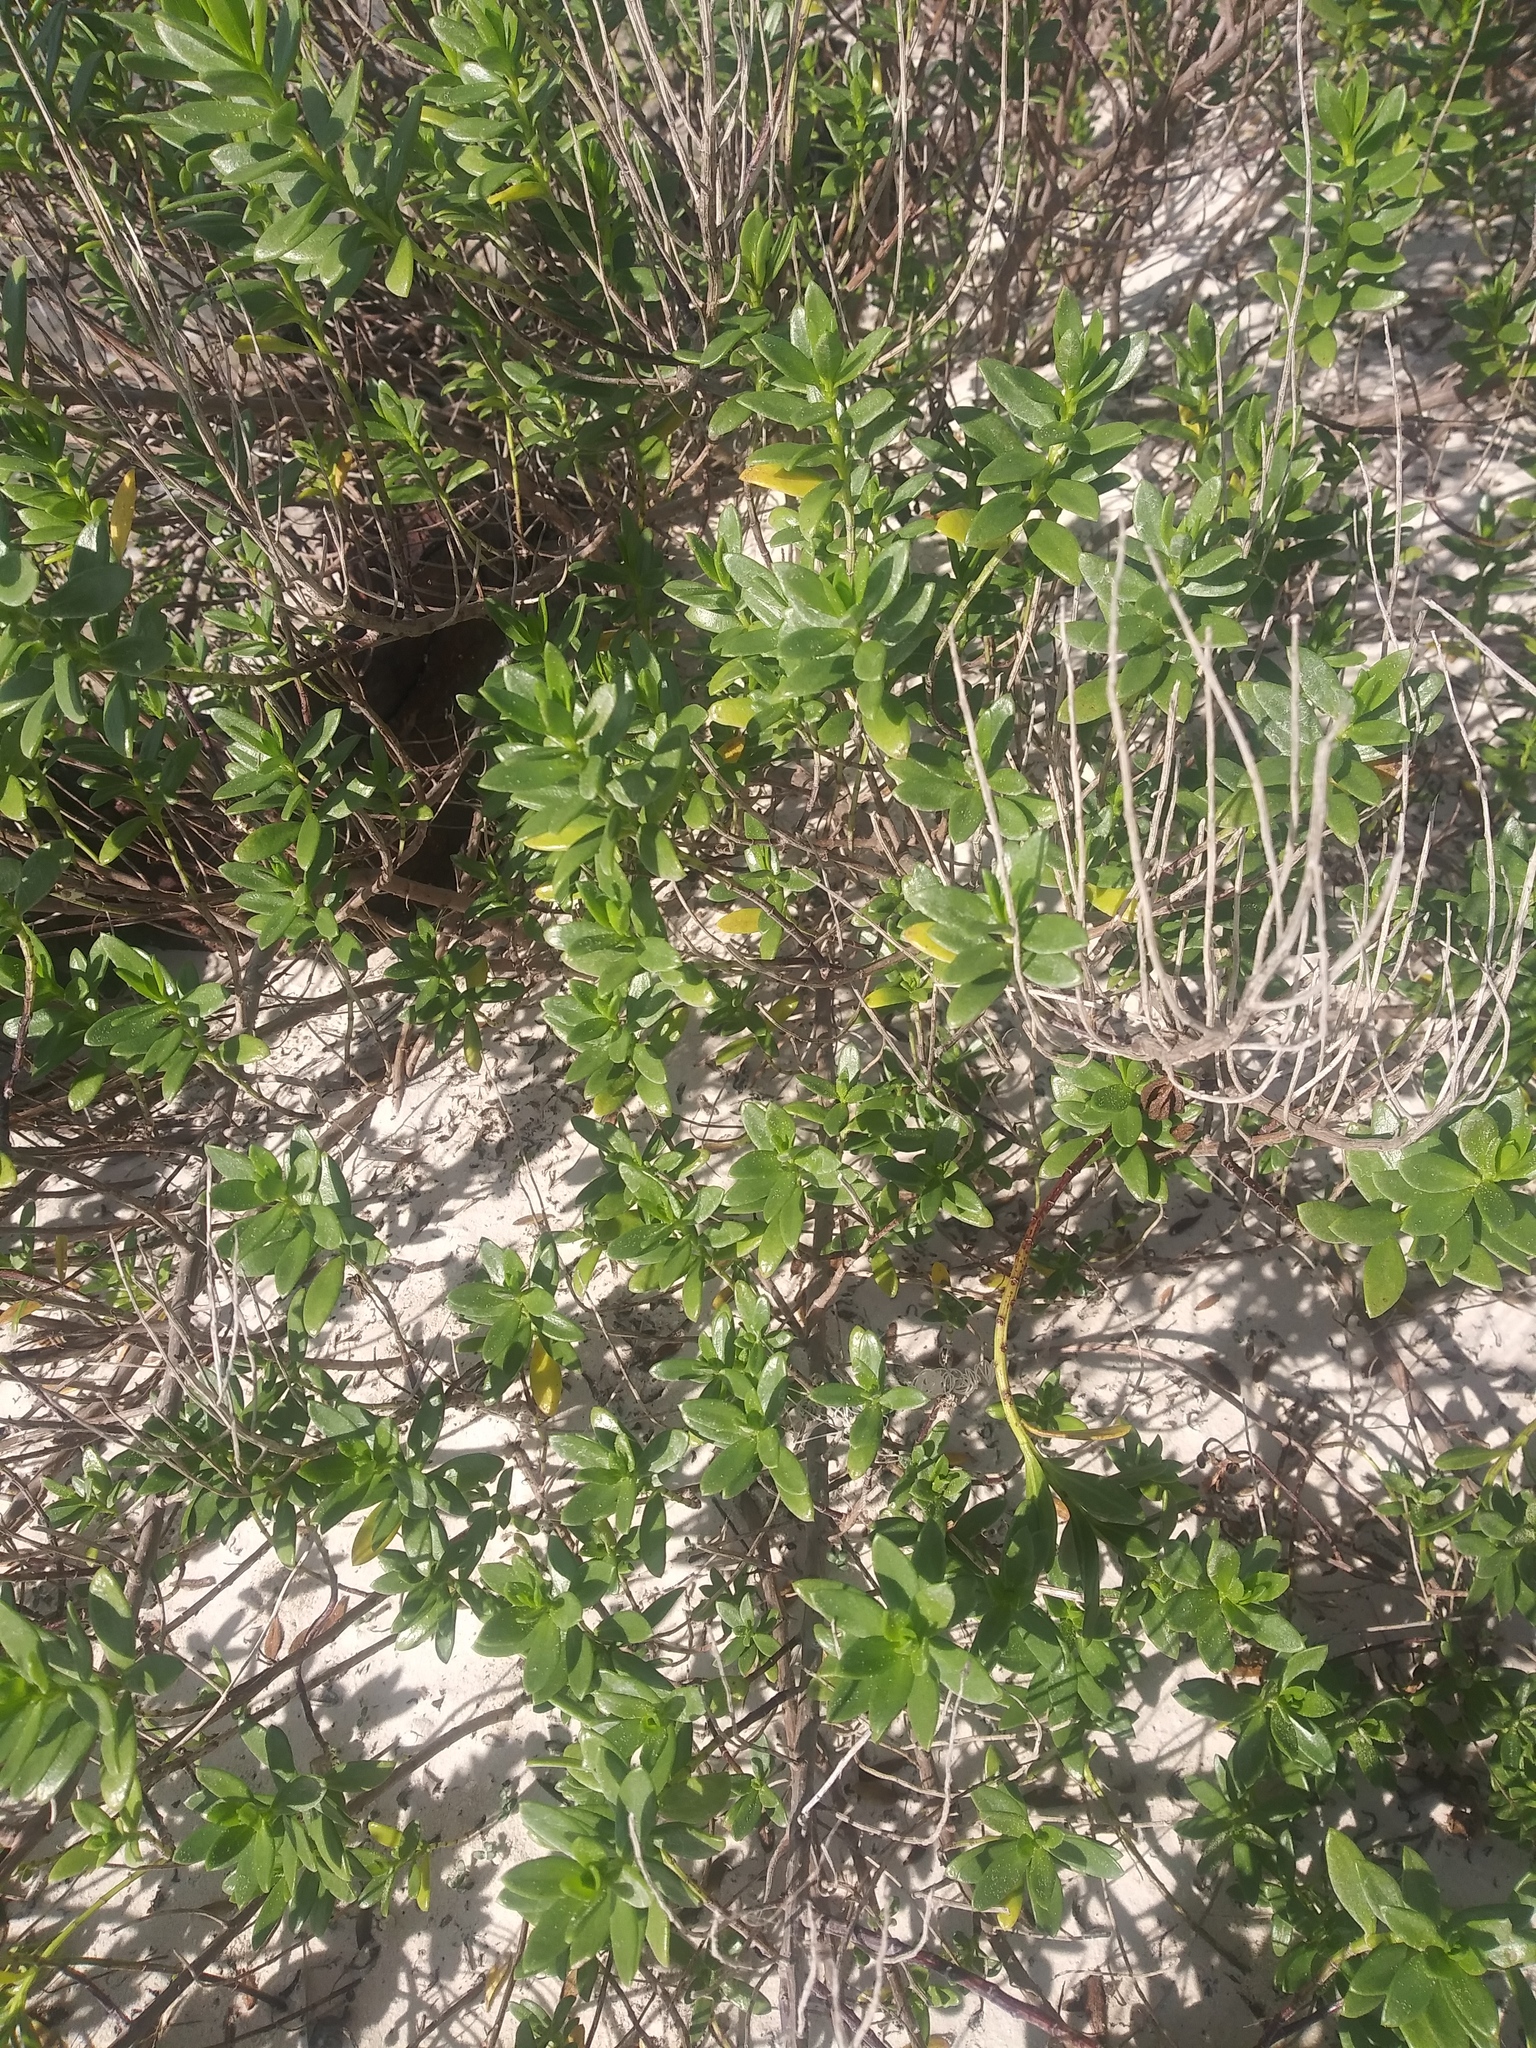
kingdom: Plantae
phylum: Tracheophyta
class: Magnoliopsida
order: Asterales
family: Asteraceae
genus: Iva
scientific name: Iva imbricata
